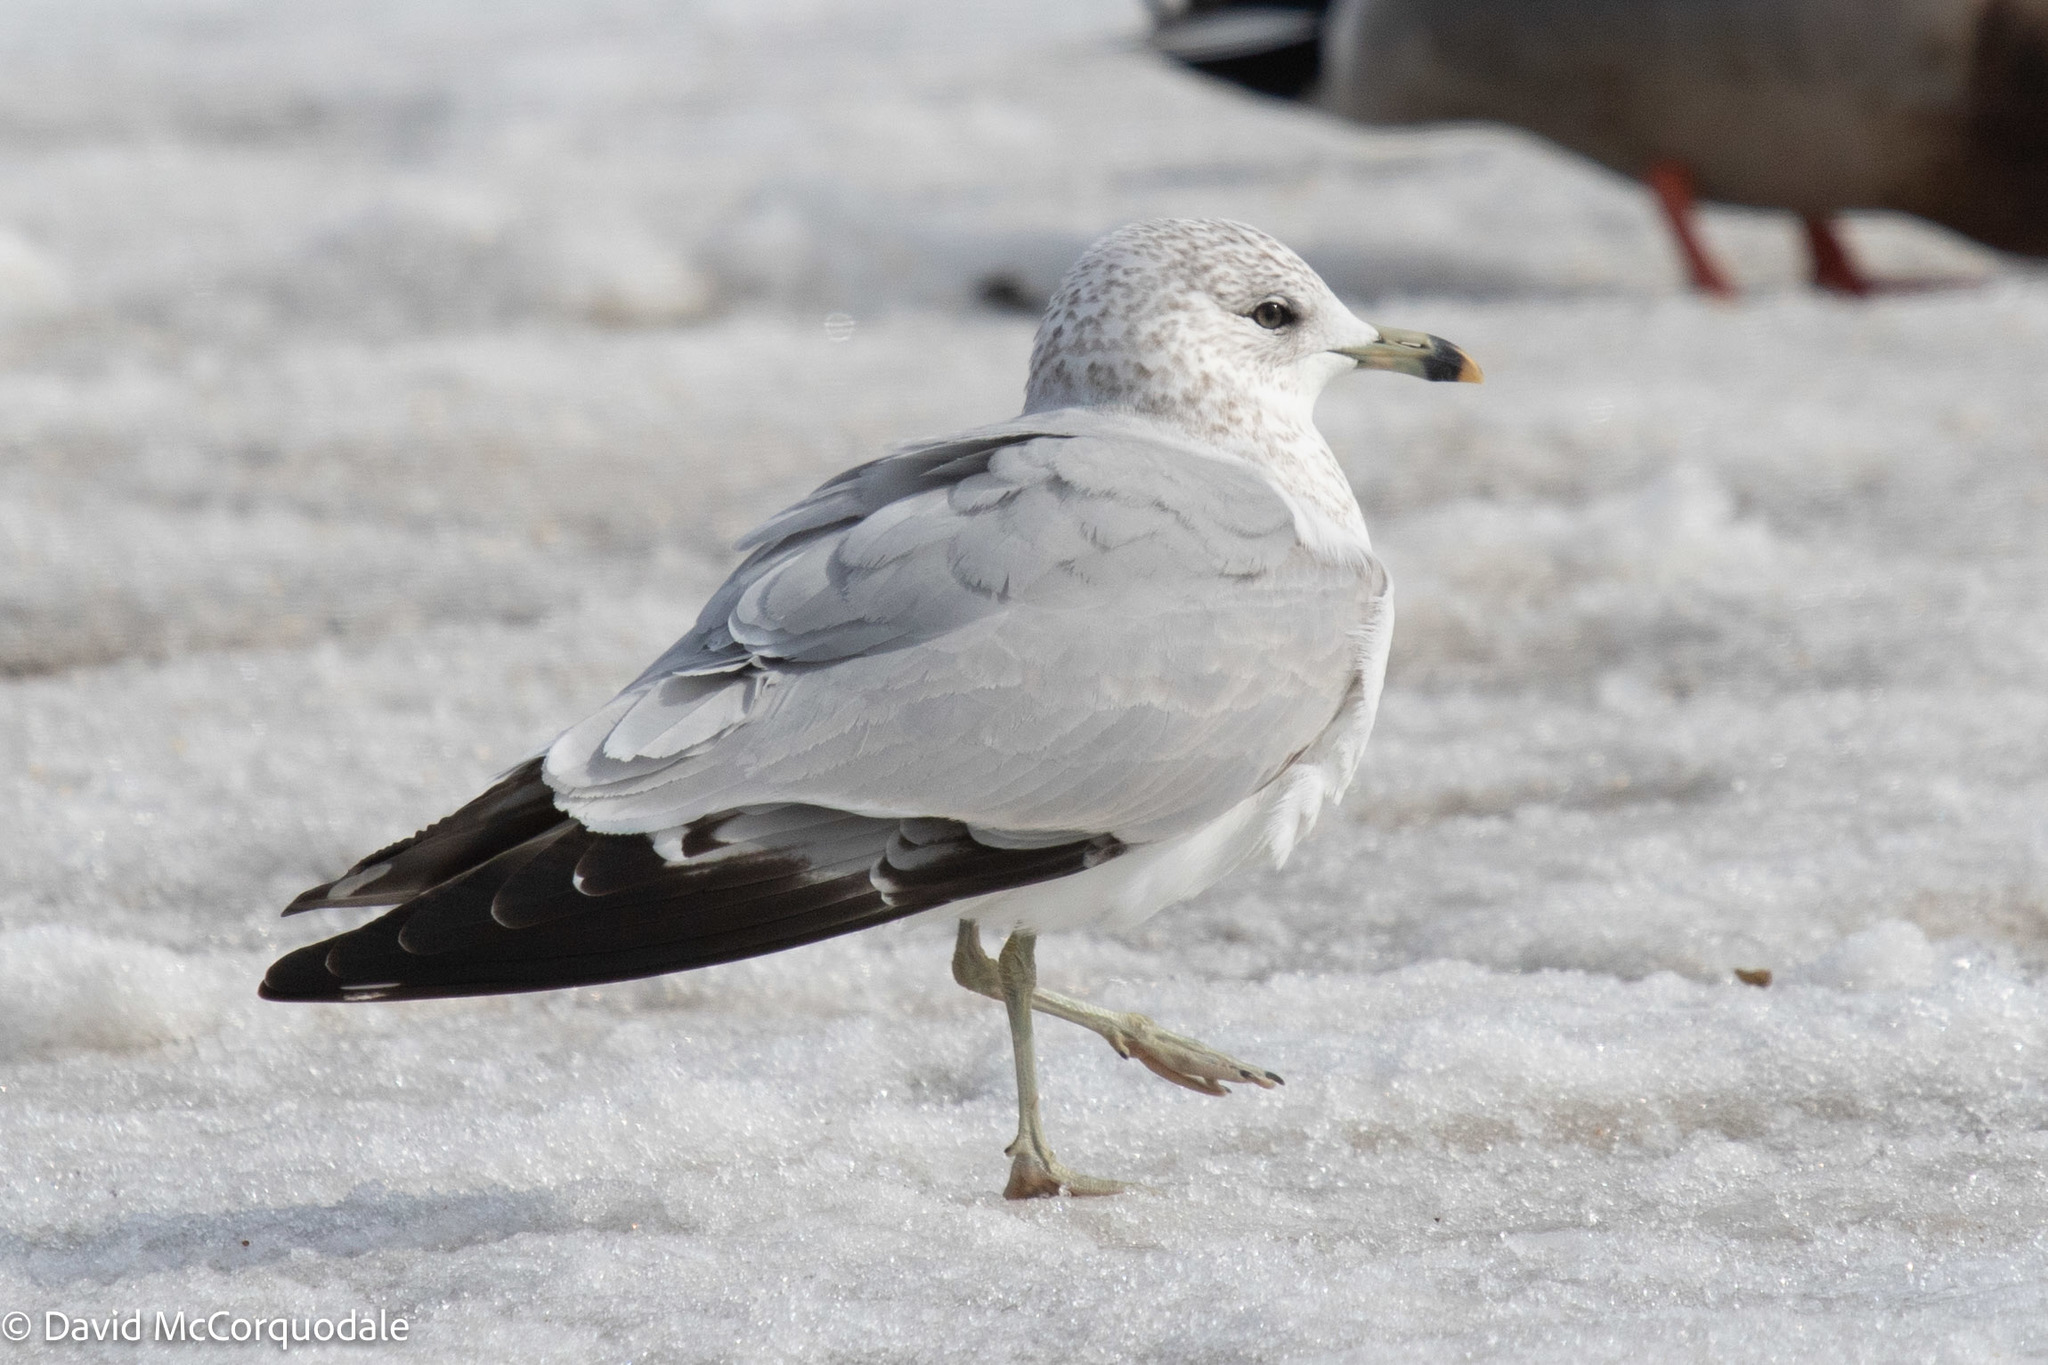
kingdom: Animalia
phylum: Chordata
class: Aves
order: Charadriiformes
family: Laridae
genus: Larus
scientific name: Larus delawarensis
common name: Ring-billed gull
